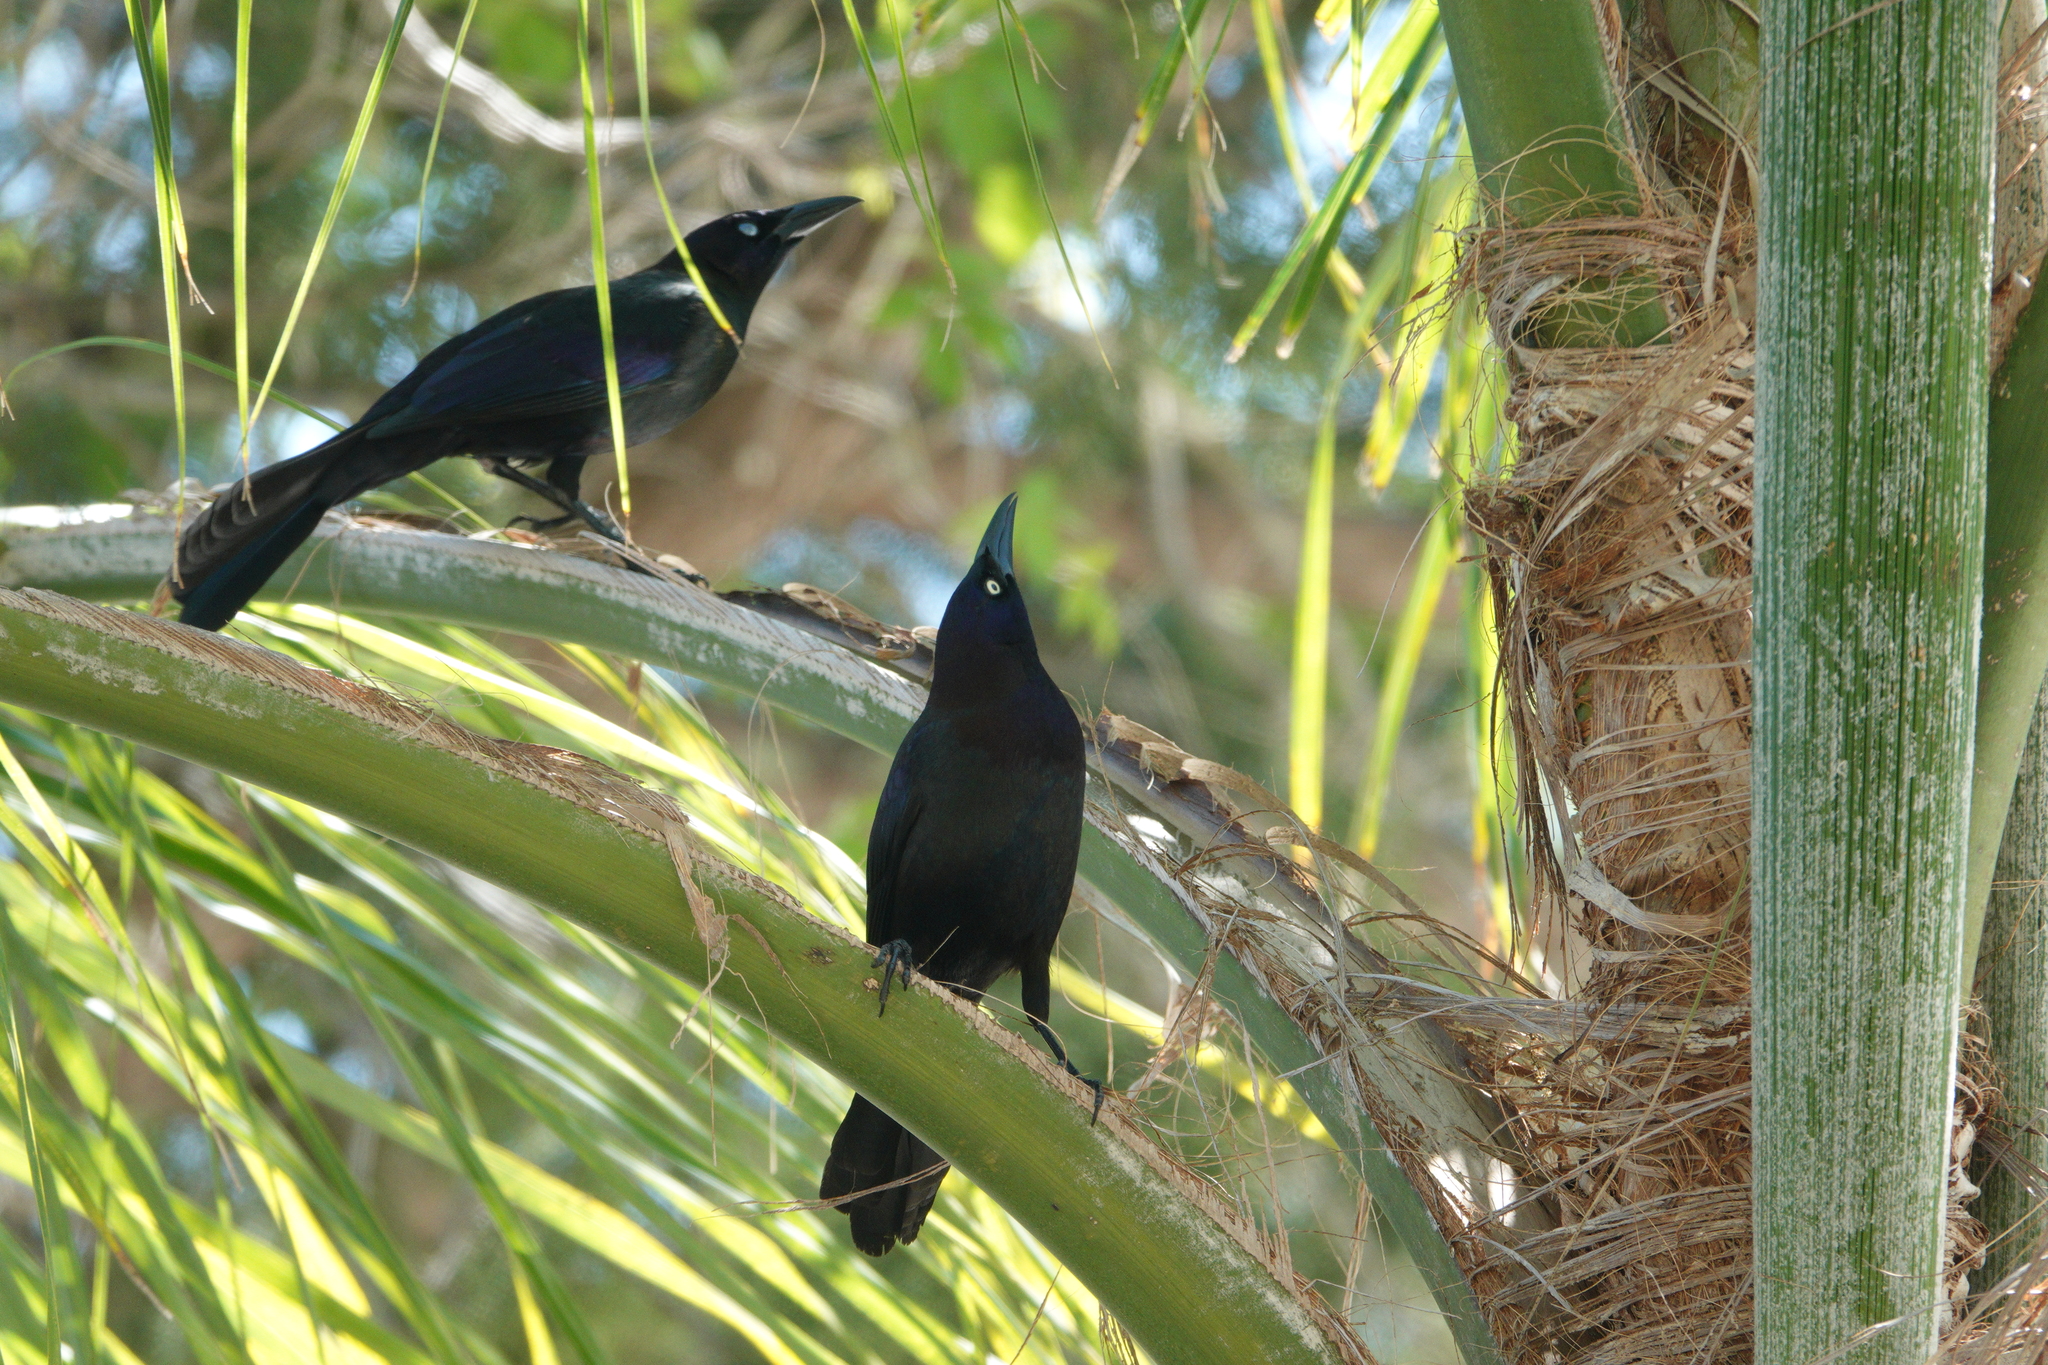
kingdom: Animalia
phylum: Chordata
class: Aves
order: Passeriformes
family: Icteridae
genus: Quiscalus
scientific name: Quiscalus quiscula
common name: Common grackle
